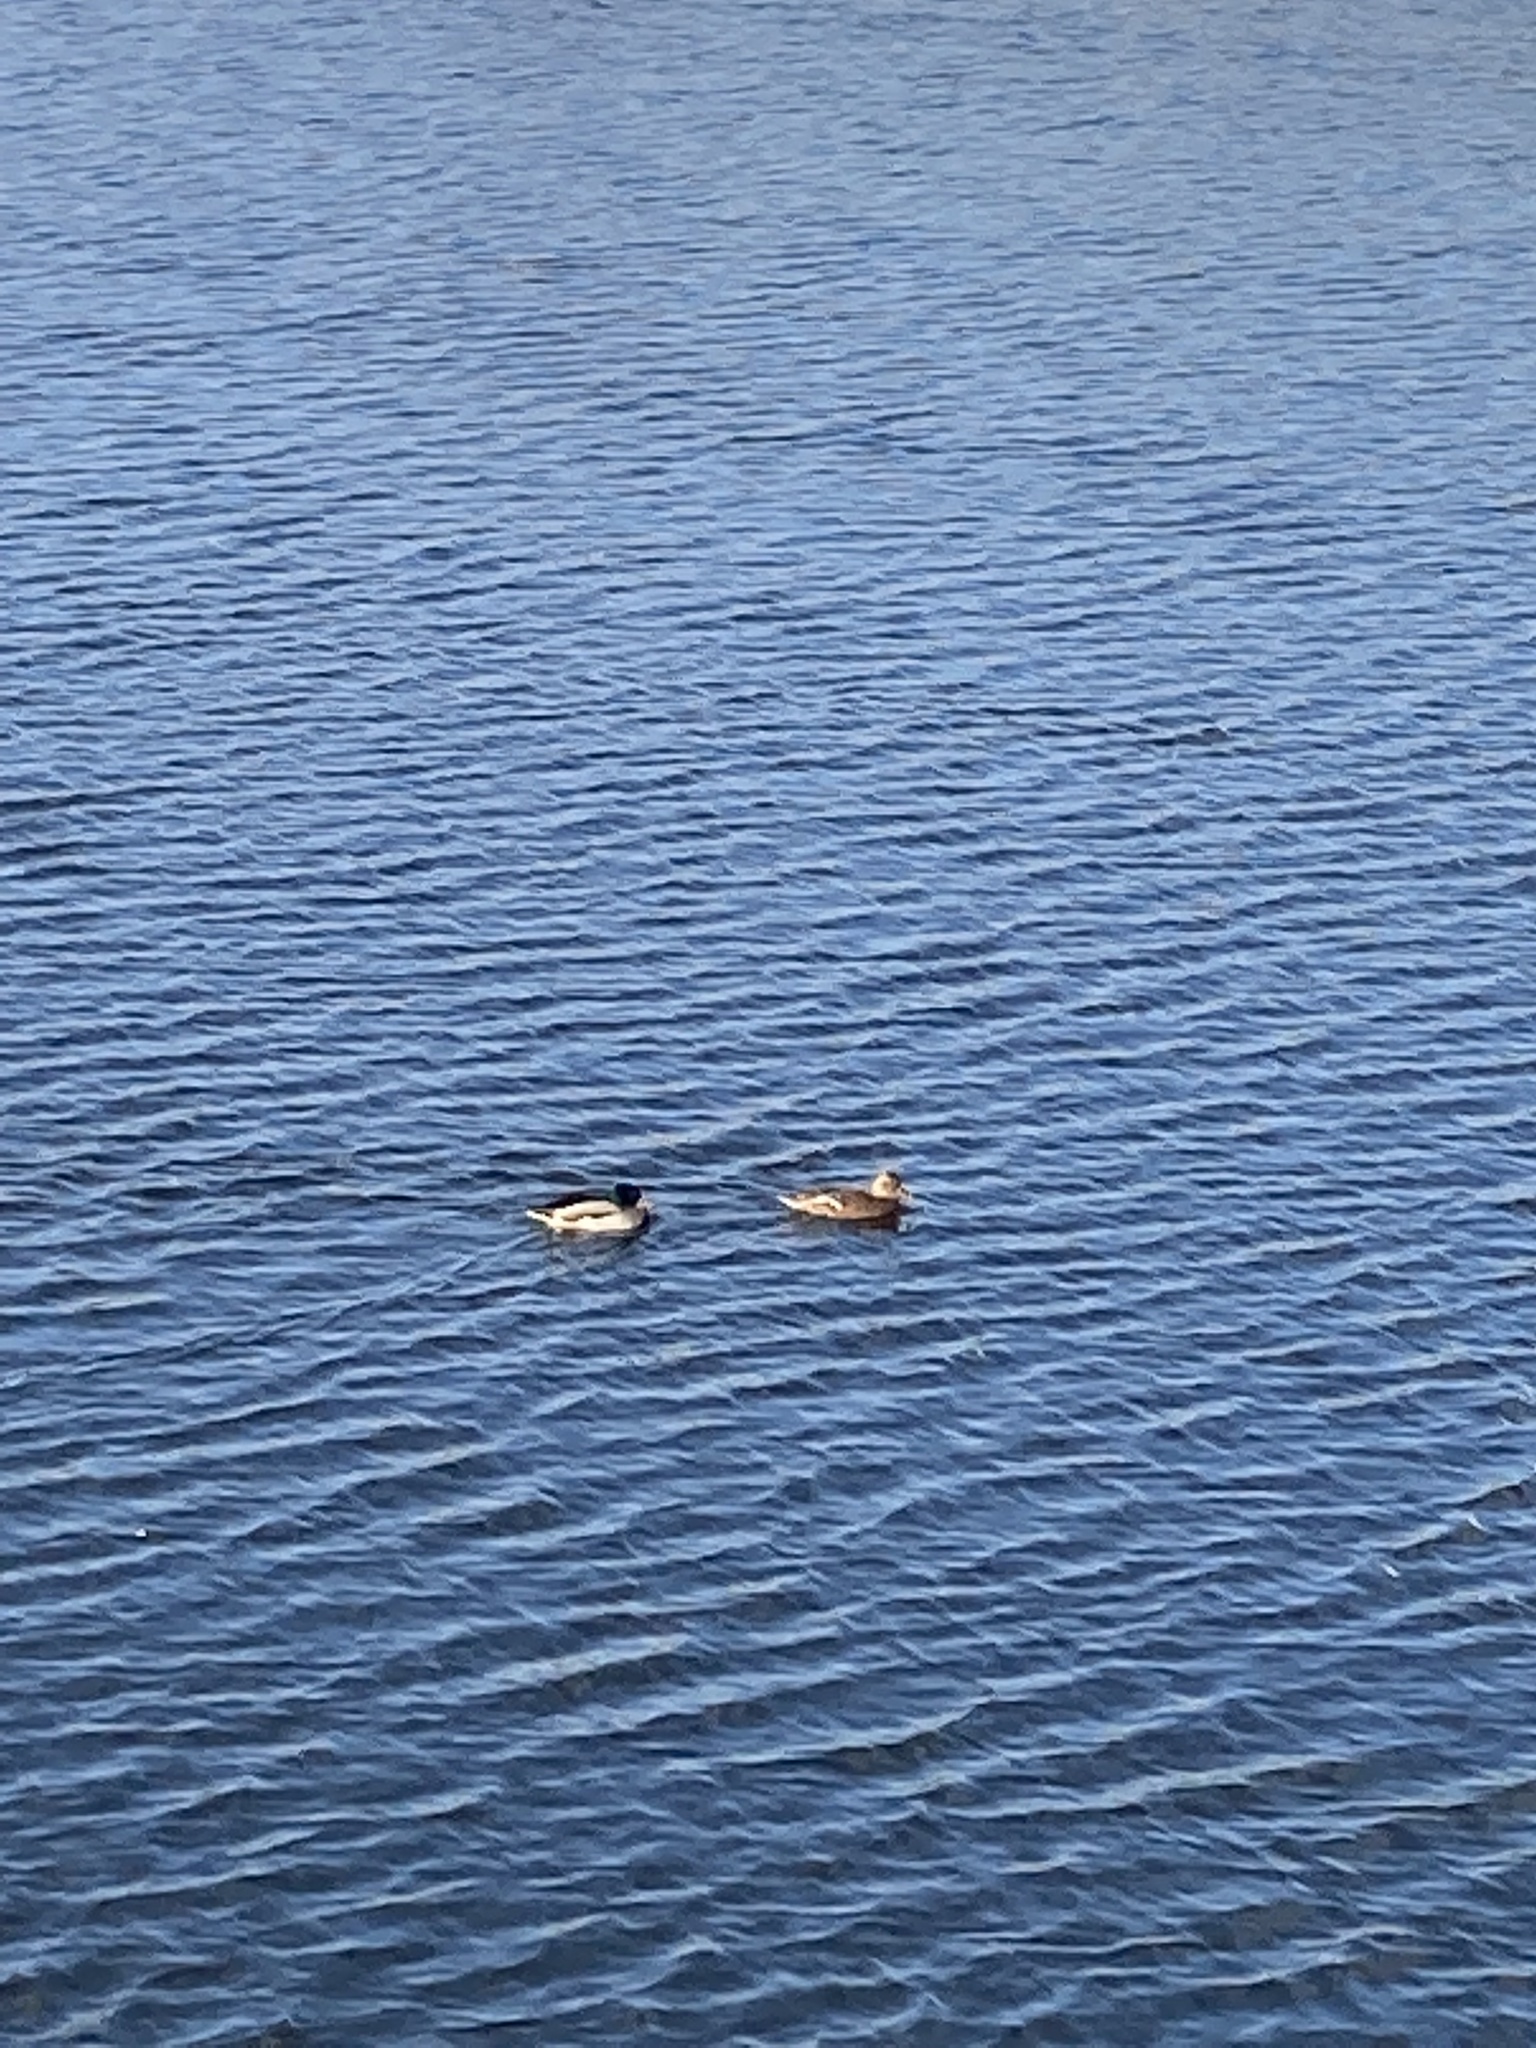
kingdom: Animalia
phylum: Chordata
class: Aves
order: Anseriformes
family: Anatidae
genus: Anas
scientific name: Anas platyrhynchos
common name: Mallard
